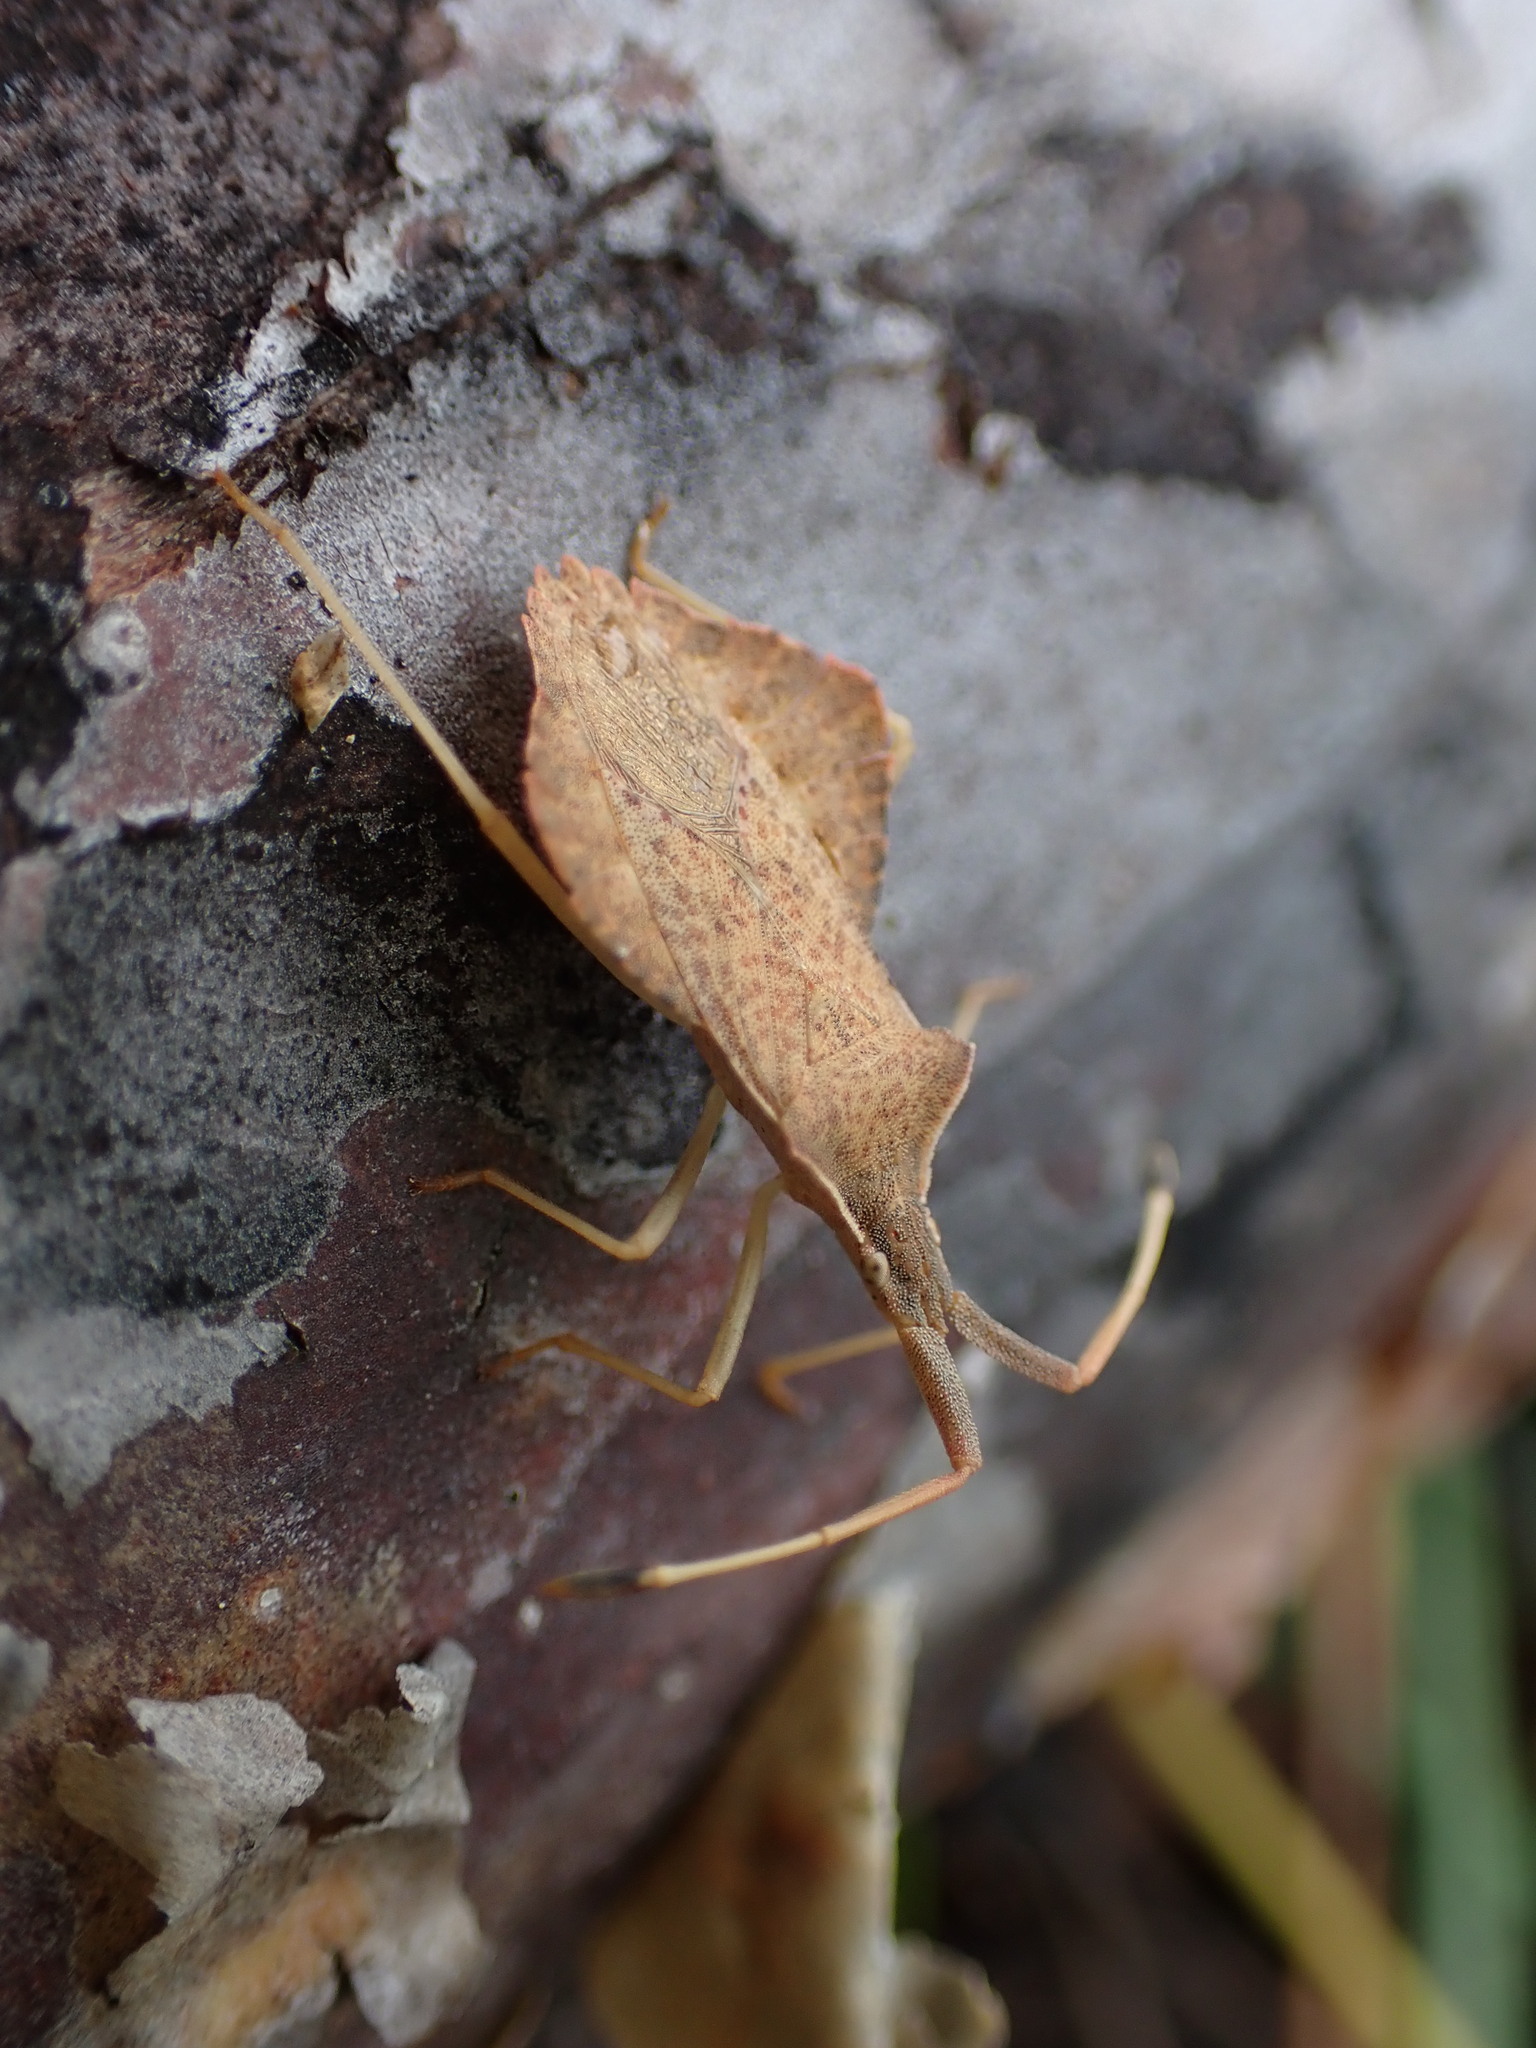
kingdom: Animalia
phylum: Arthropoda
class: Insecta
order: Hemiptera
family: Coreidae
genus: Syromastus
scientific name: Syromastus rhombeus
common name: Rhombic leatherbug
